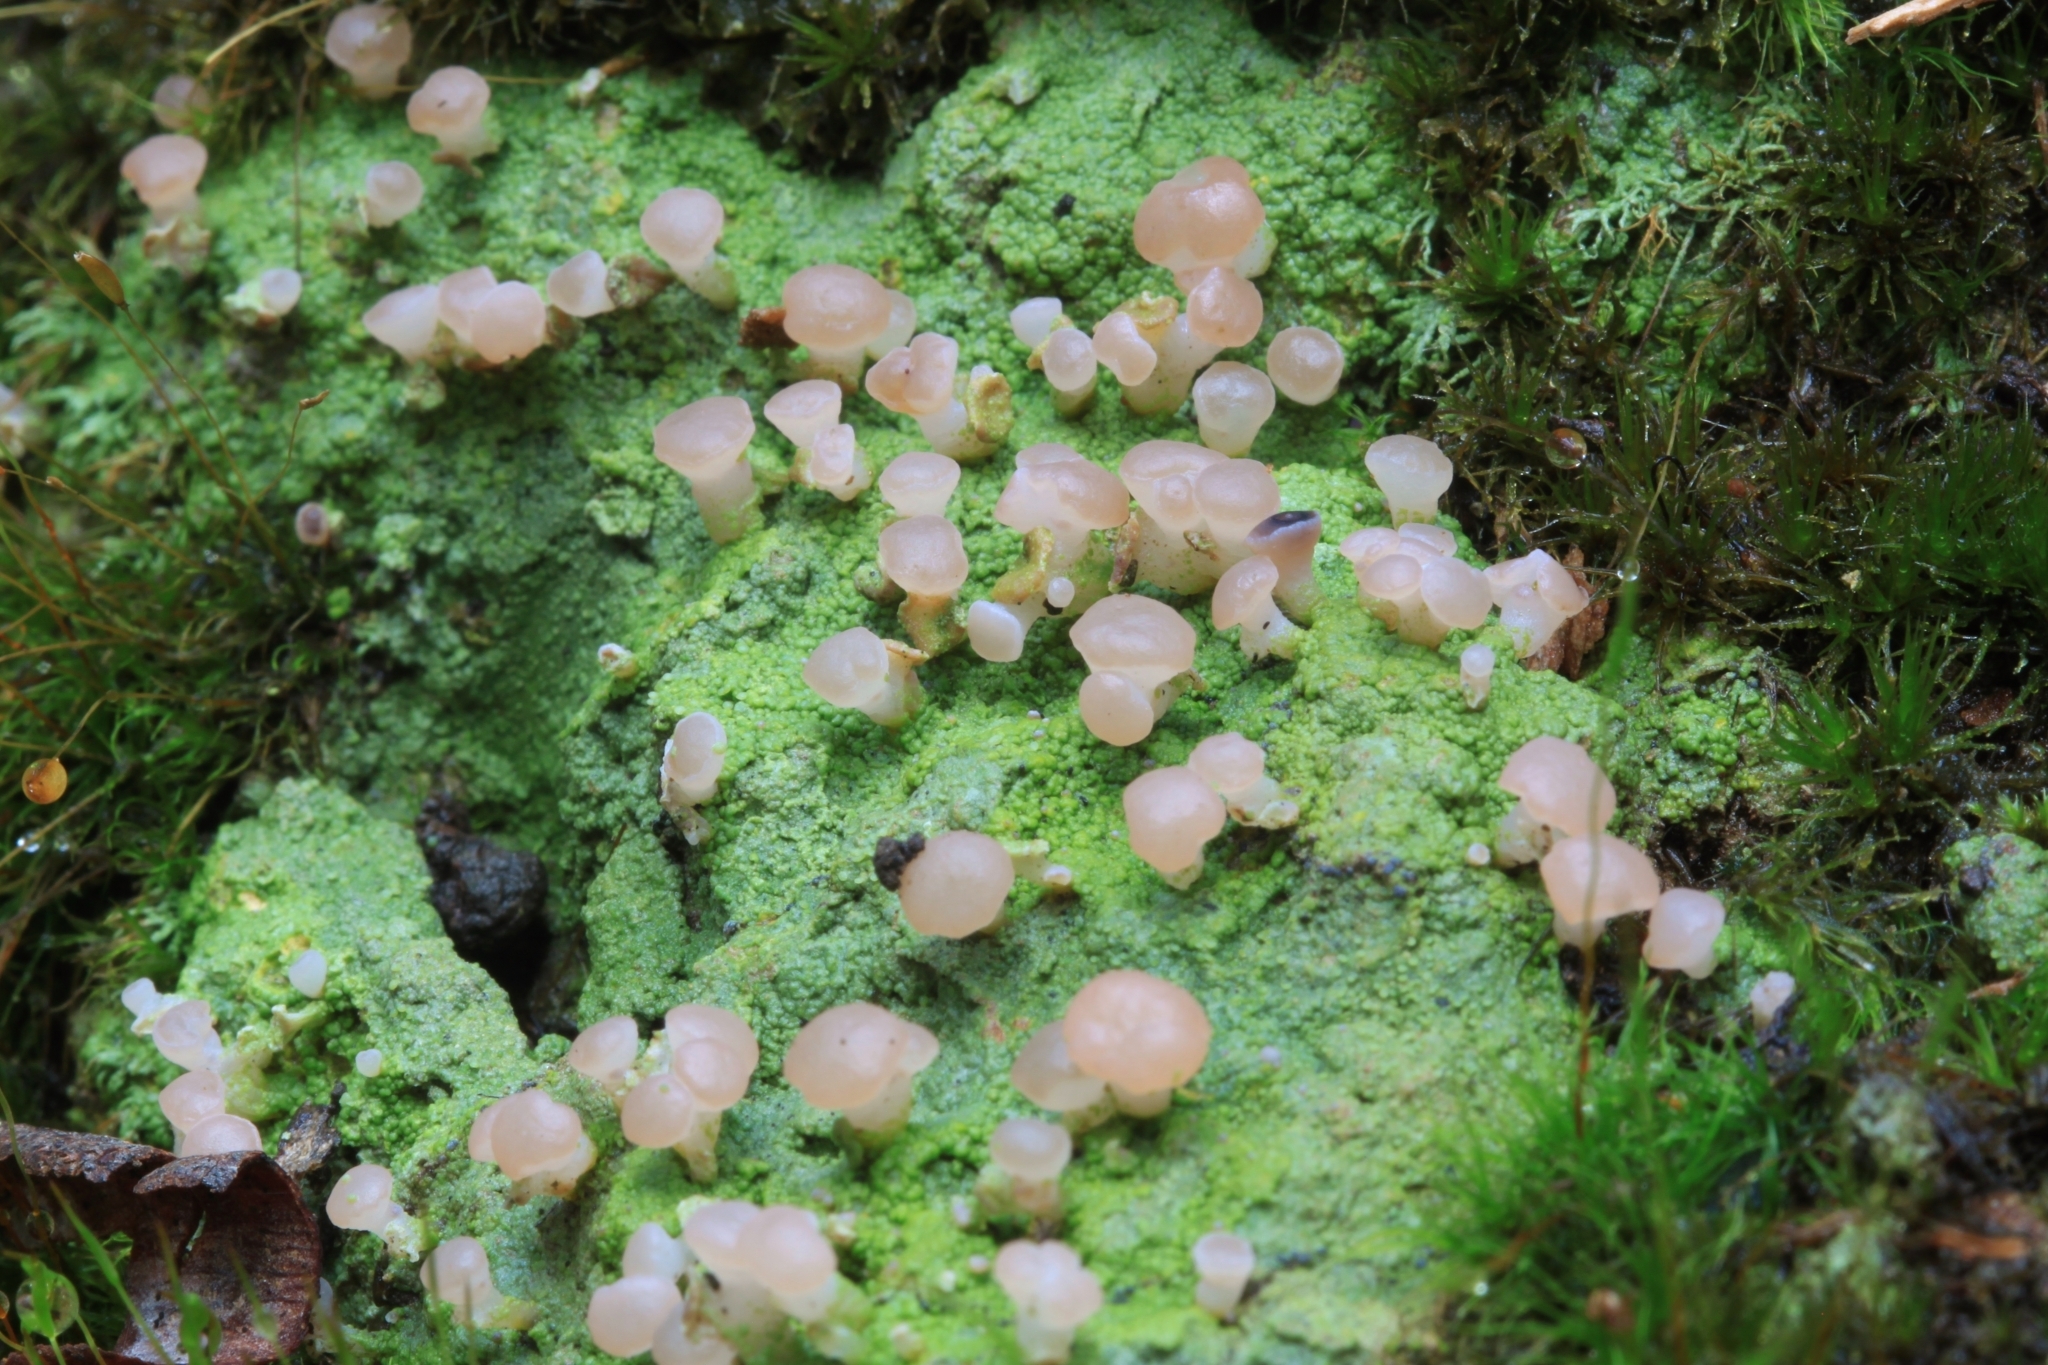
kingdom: Fungi
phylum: Ascomycota
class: Lecanoromycetes
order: Baeomycetales
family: Baeomycetaceae
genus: Baeomyces
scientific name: Baeomyces heteromorphus
